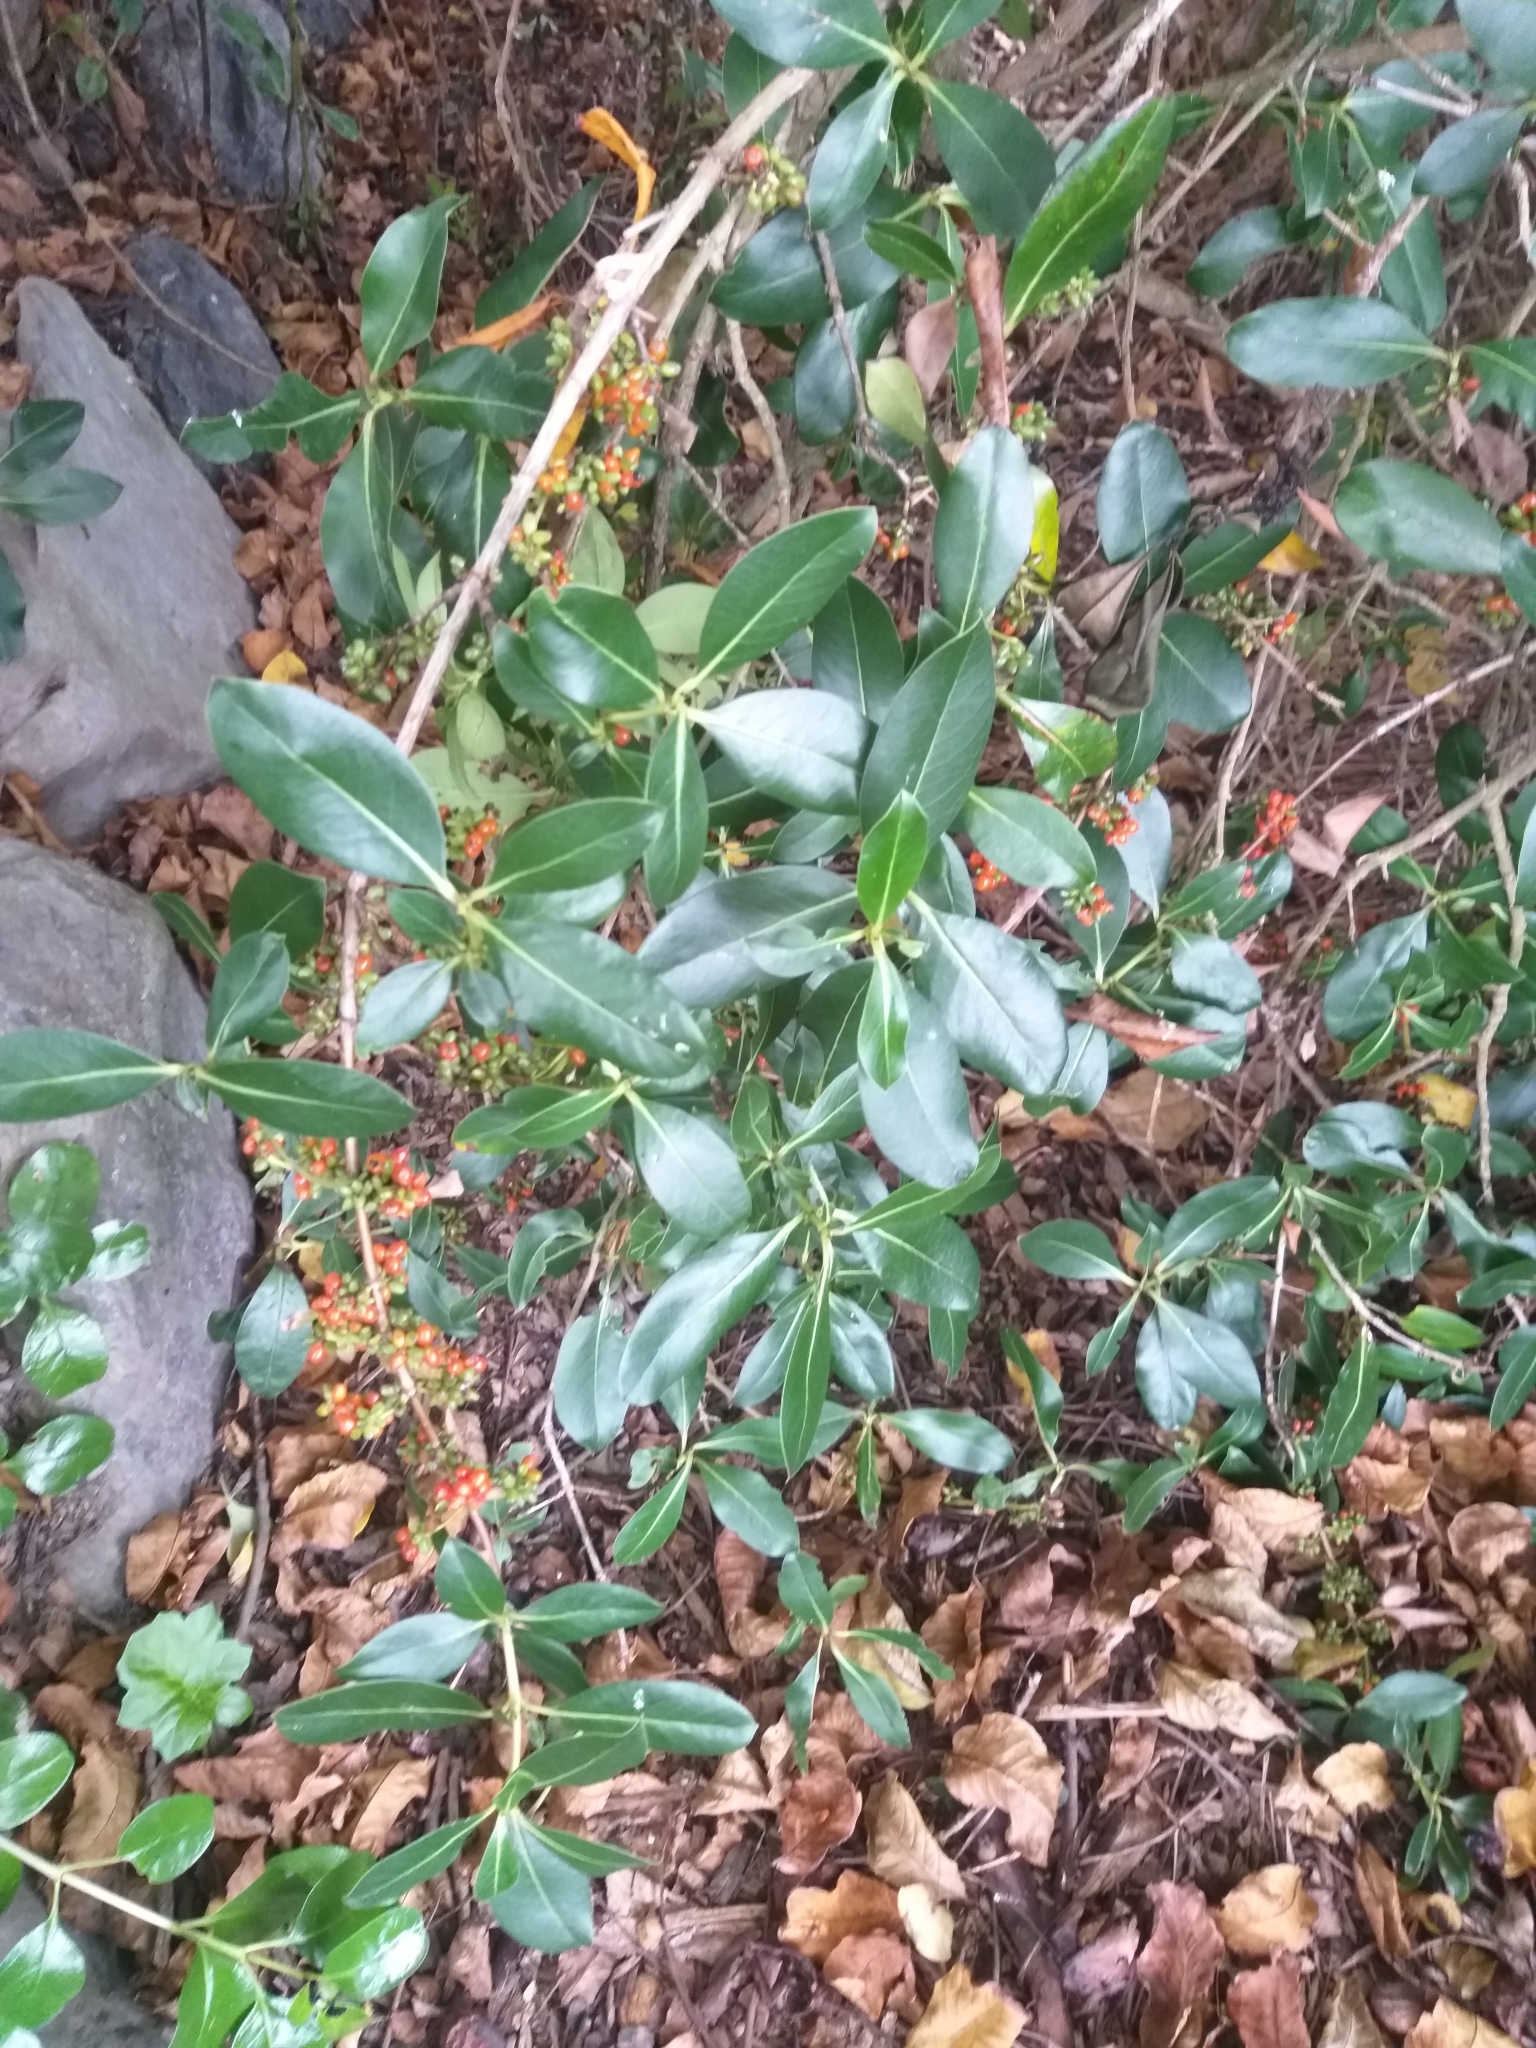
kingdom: Plantae
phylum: Tracheophyta
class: Magnoliopsida
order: Gentianales
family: Rubiaceae
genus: Coprosma
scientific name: Coprosma robusta
